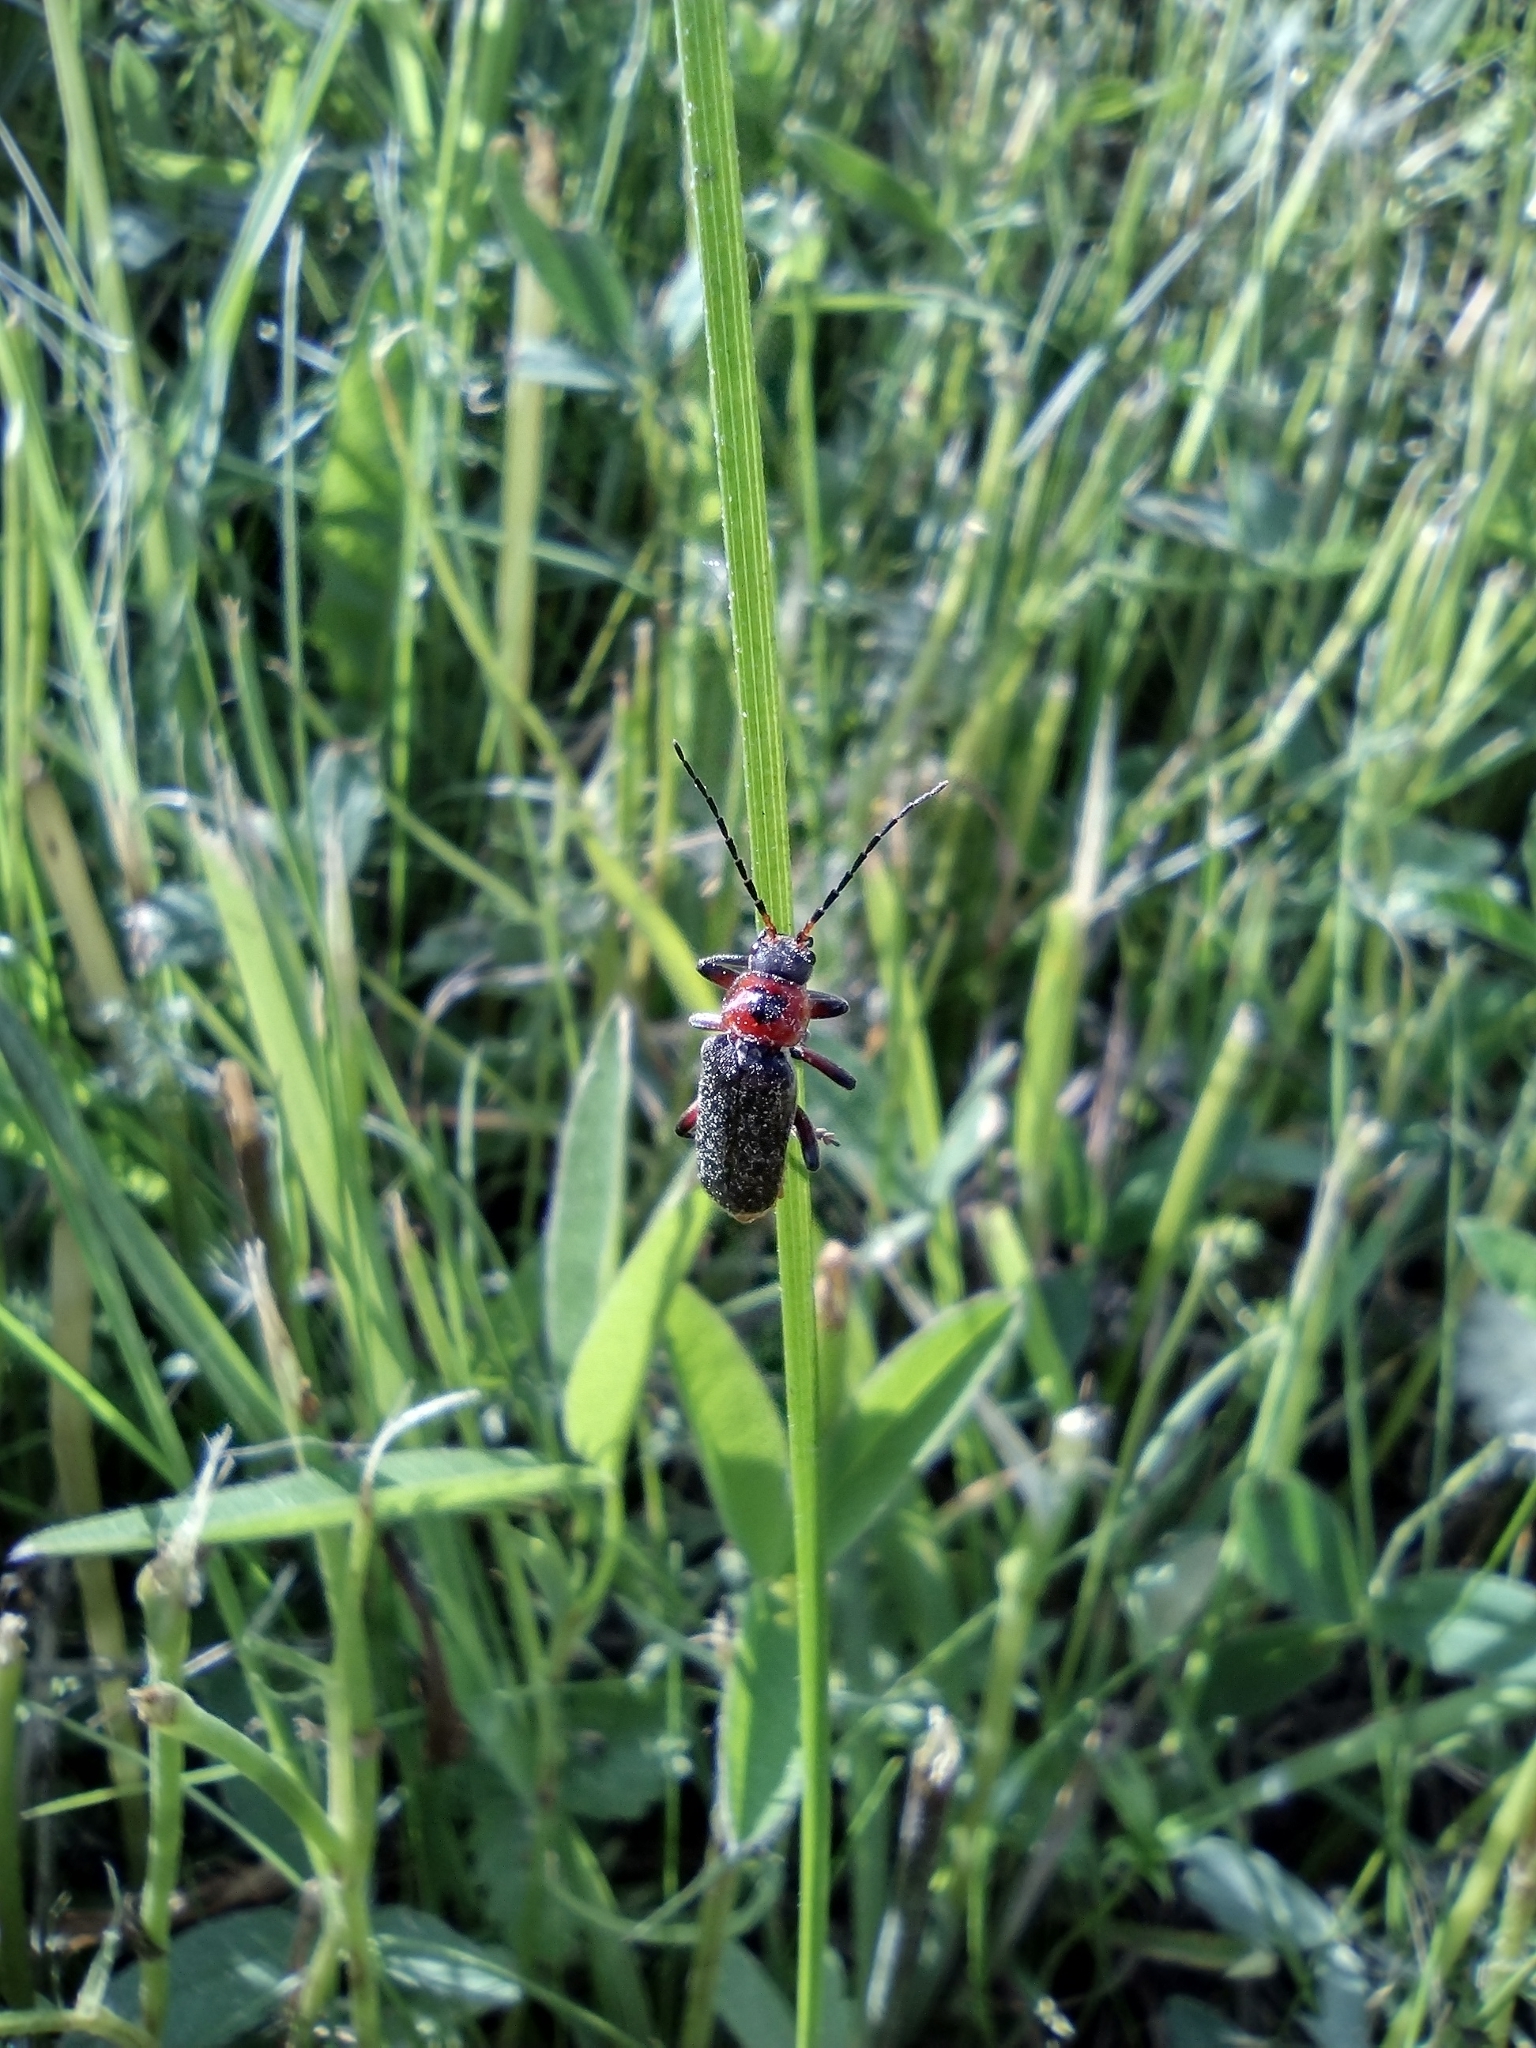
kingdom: Animalia
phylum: Arthropoda
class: Insecta
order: Coleoptera
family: Cantharidae
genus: Cantharis
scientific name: Cantharis rustica
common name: Soldier beetle
